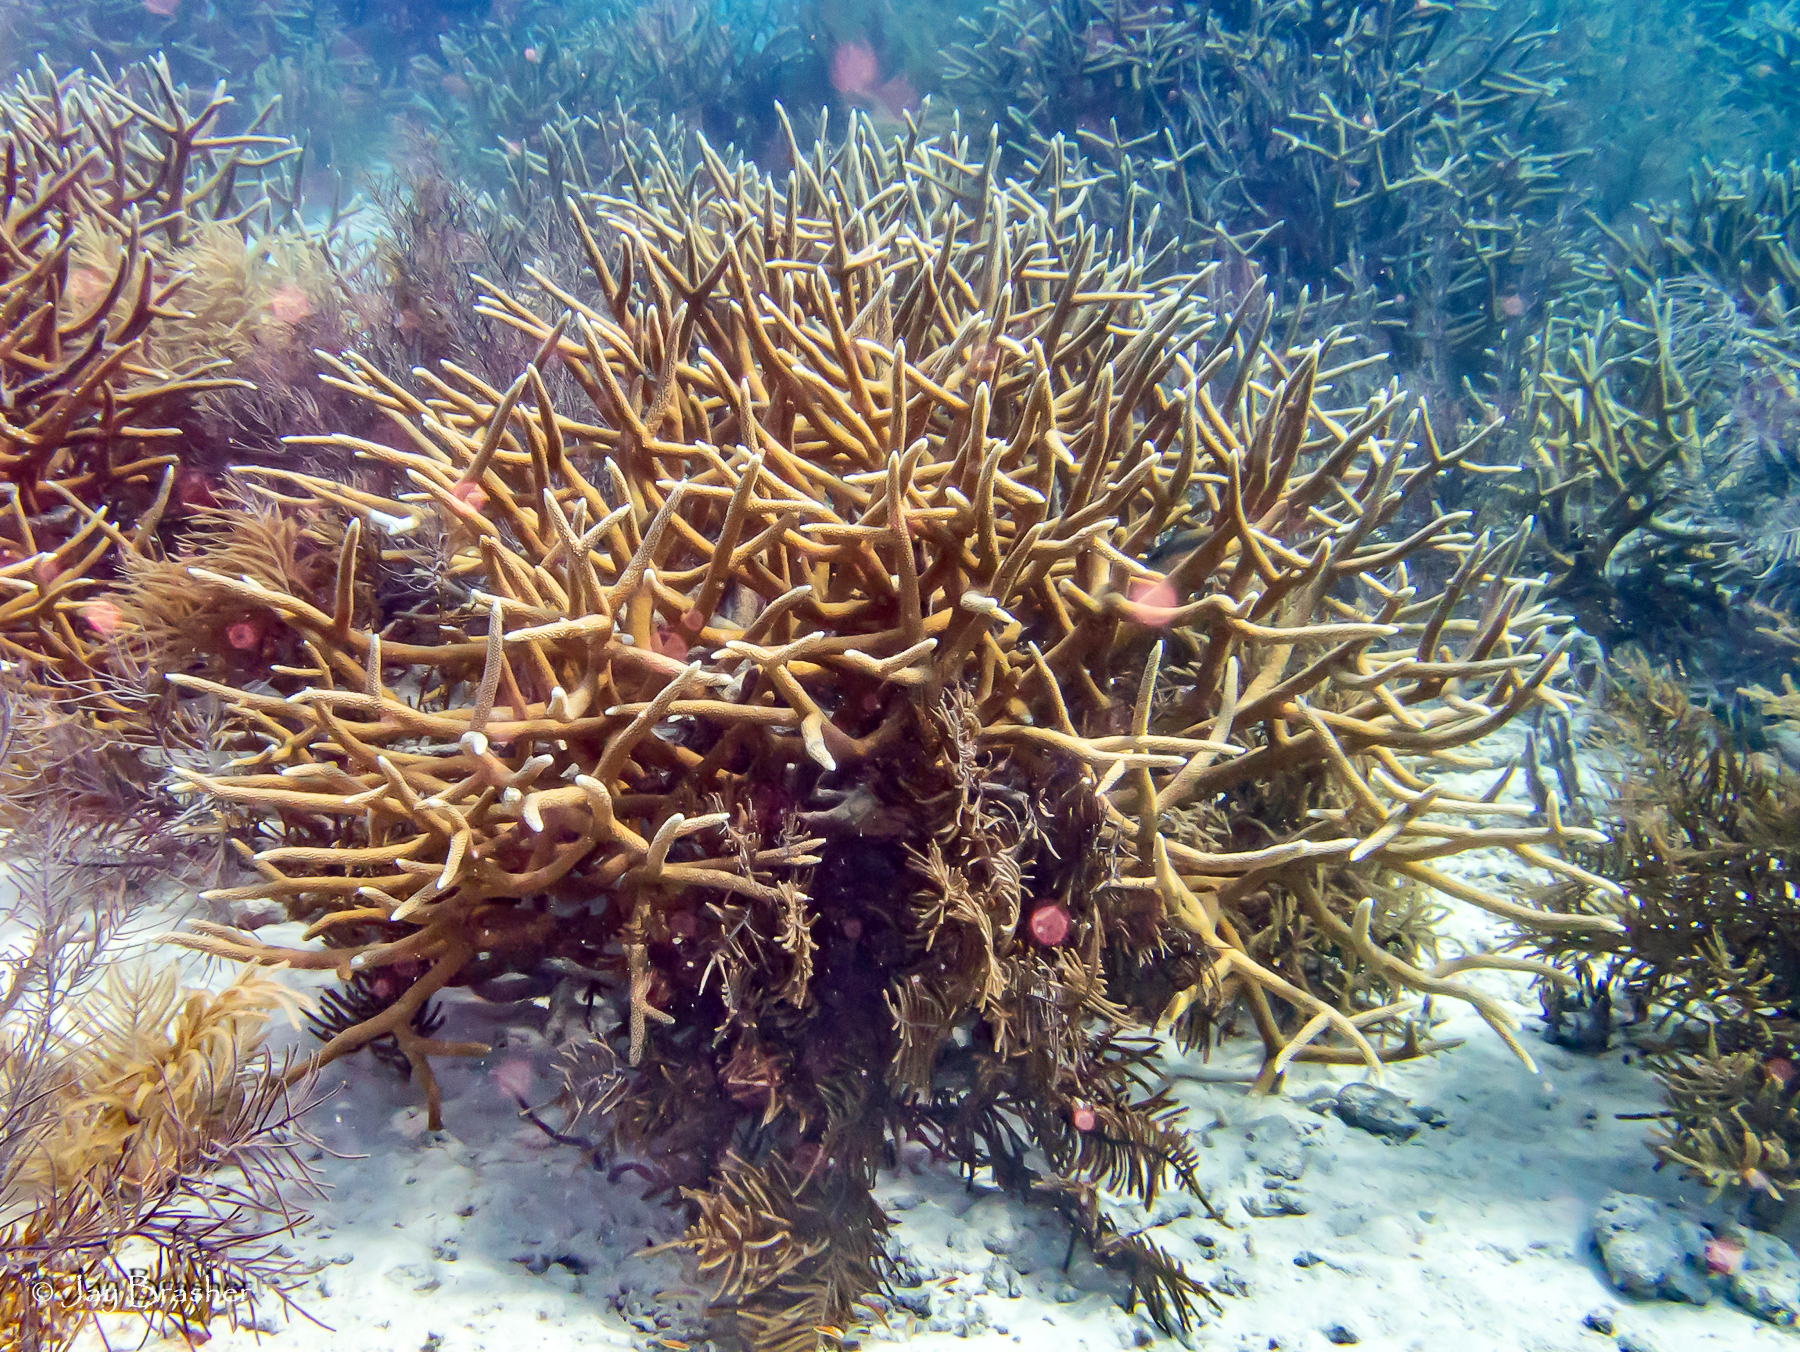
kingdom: Animalia
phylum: Cnidaria
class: Anthozoa
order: Scleractinia
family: Acroporidae
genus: Acropora
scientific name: Acropora cervicornis
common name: Staghorn coral
